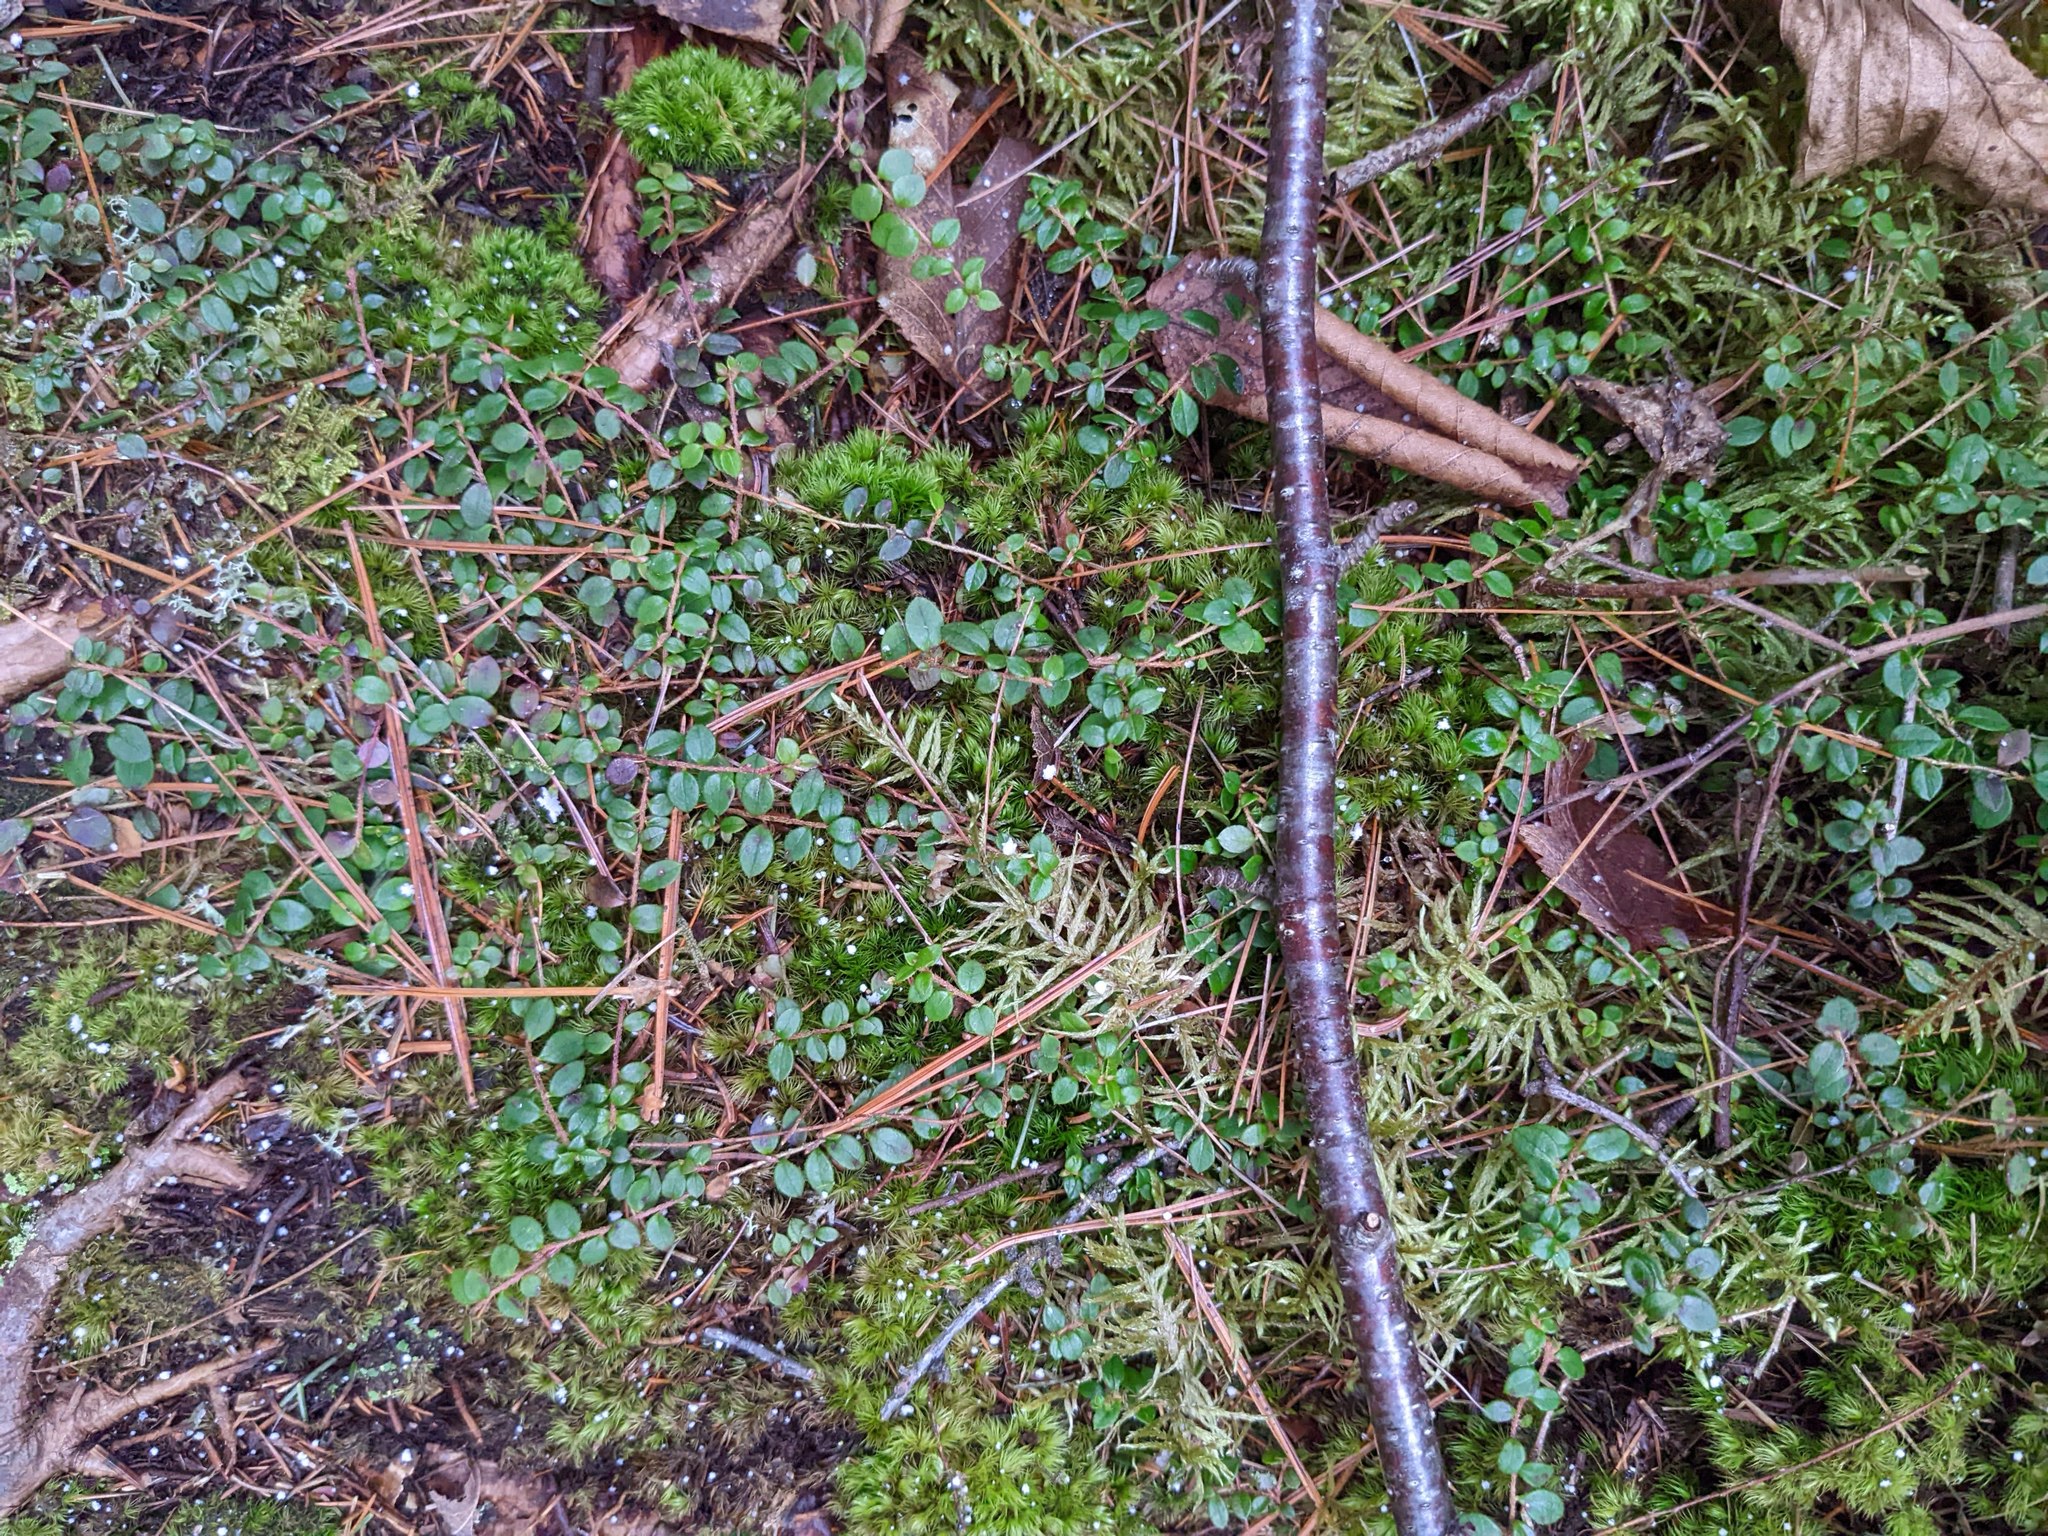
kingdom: Plantae
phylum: Tracheophyta
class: Magnoliopsida
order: Ericales
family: Ericaceae
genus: Gaultheria
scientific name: Gaultheria hispidula
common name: Cancer wintergreen
